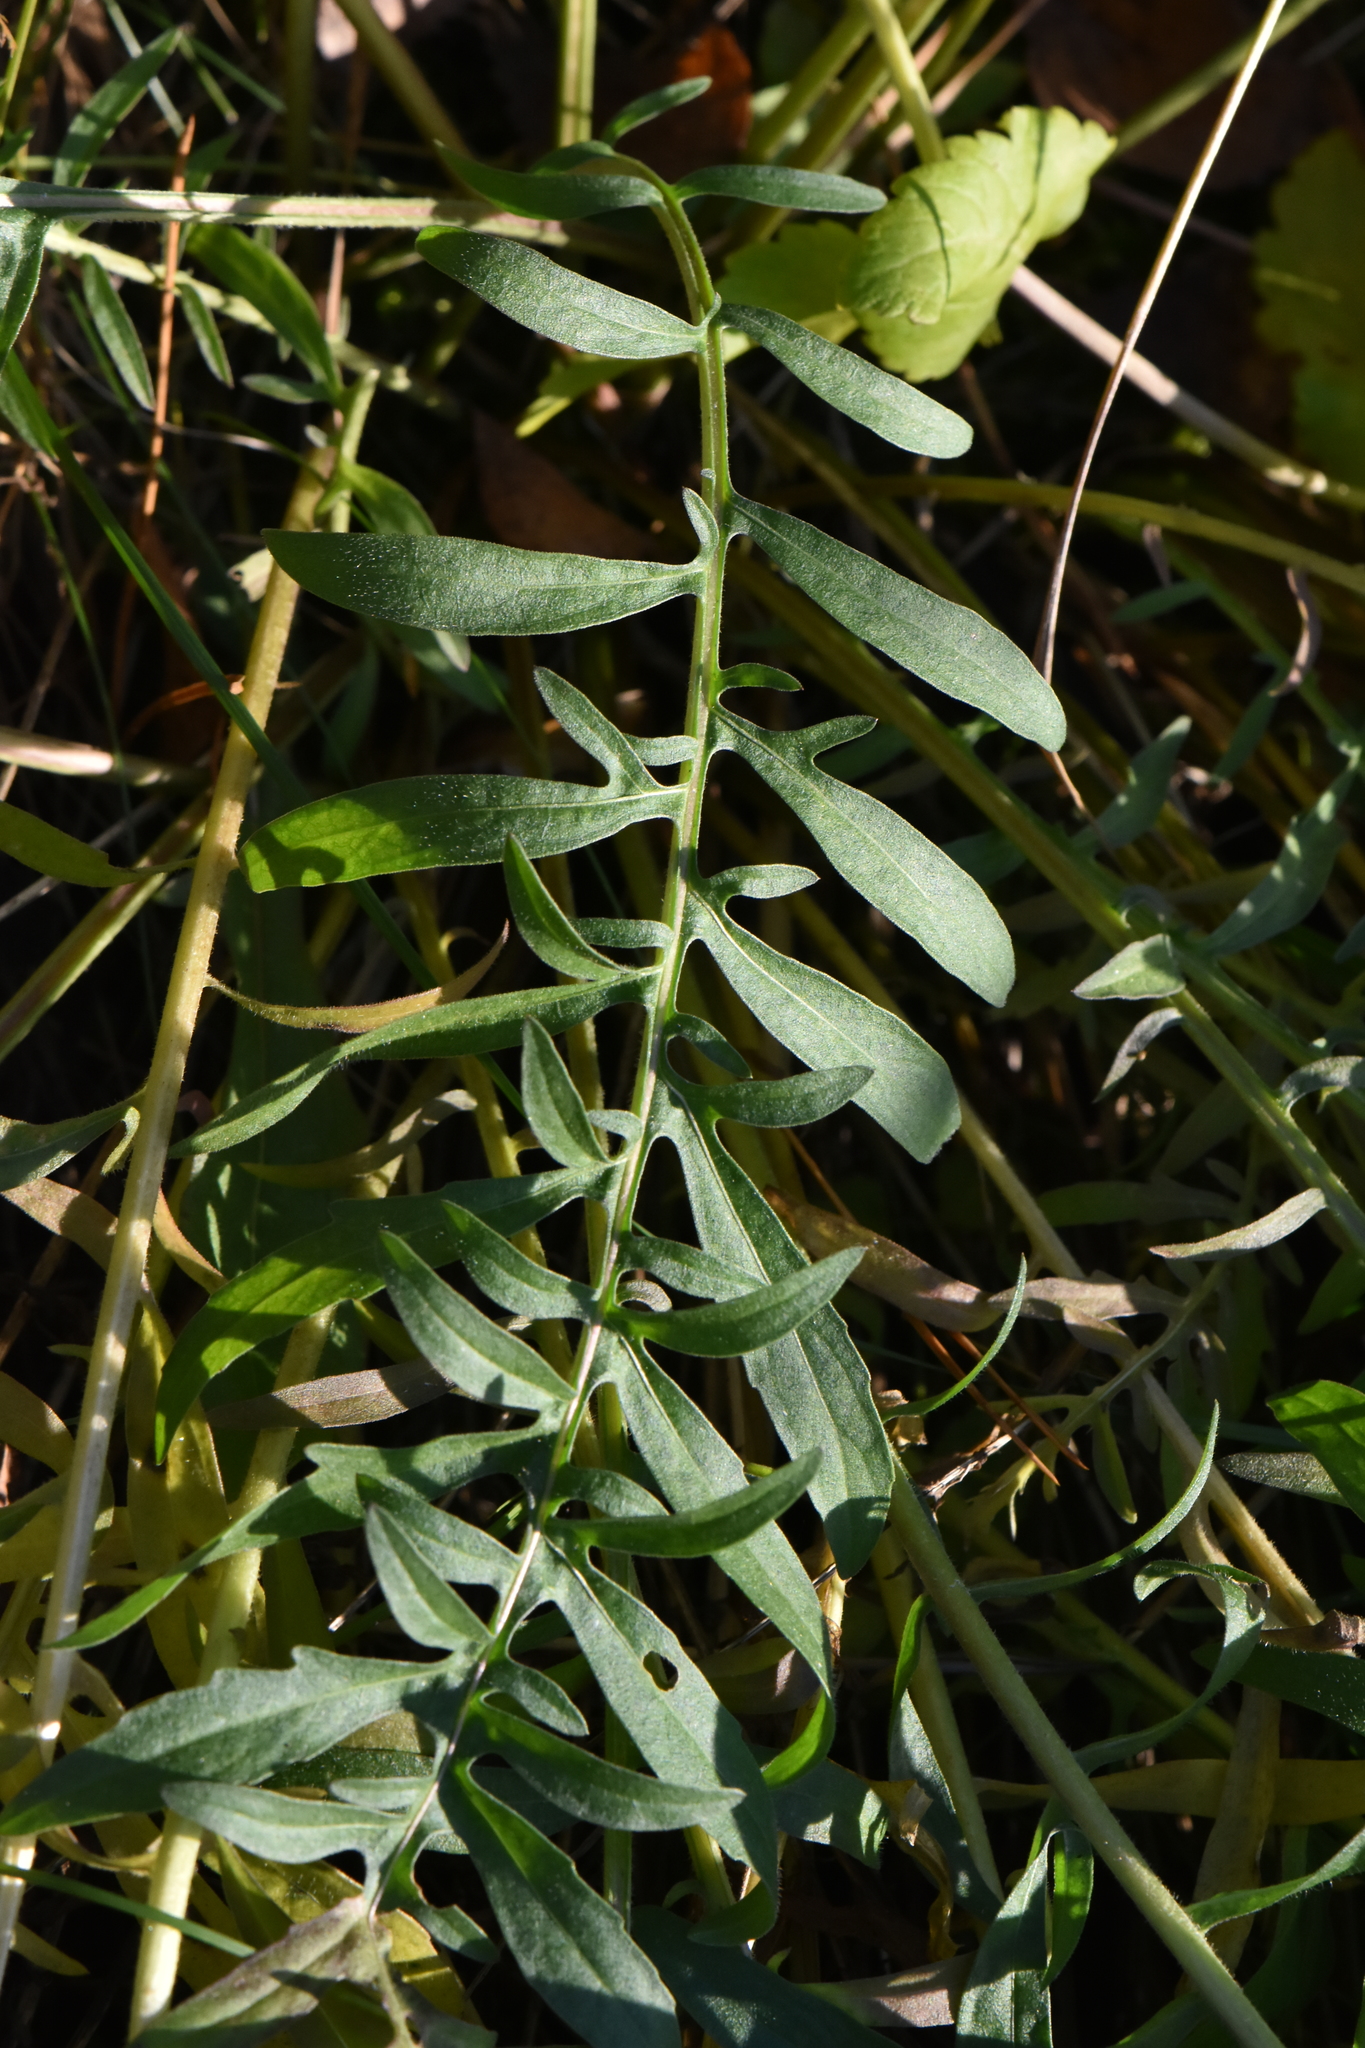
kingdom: Plantae
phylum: Tracheophyta
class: Magnoliopsida
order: Asterales
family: Asteraceae
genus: Centaurea
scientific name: Centaurea scabiosa
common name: Greater knapweed
